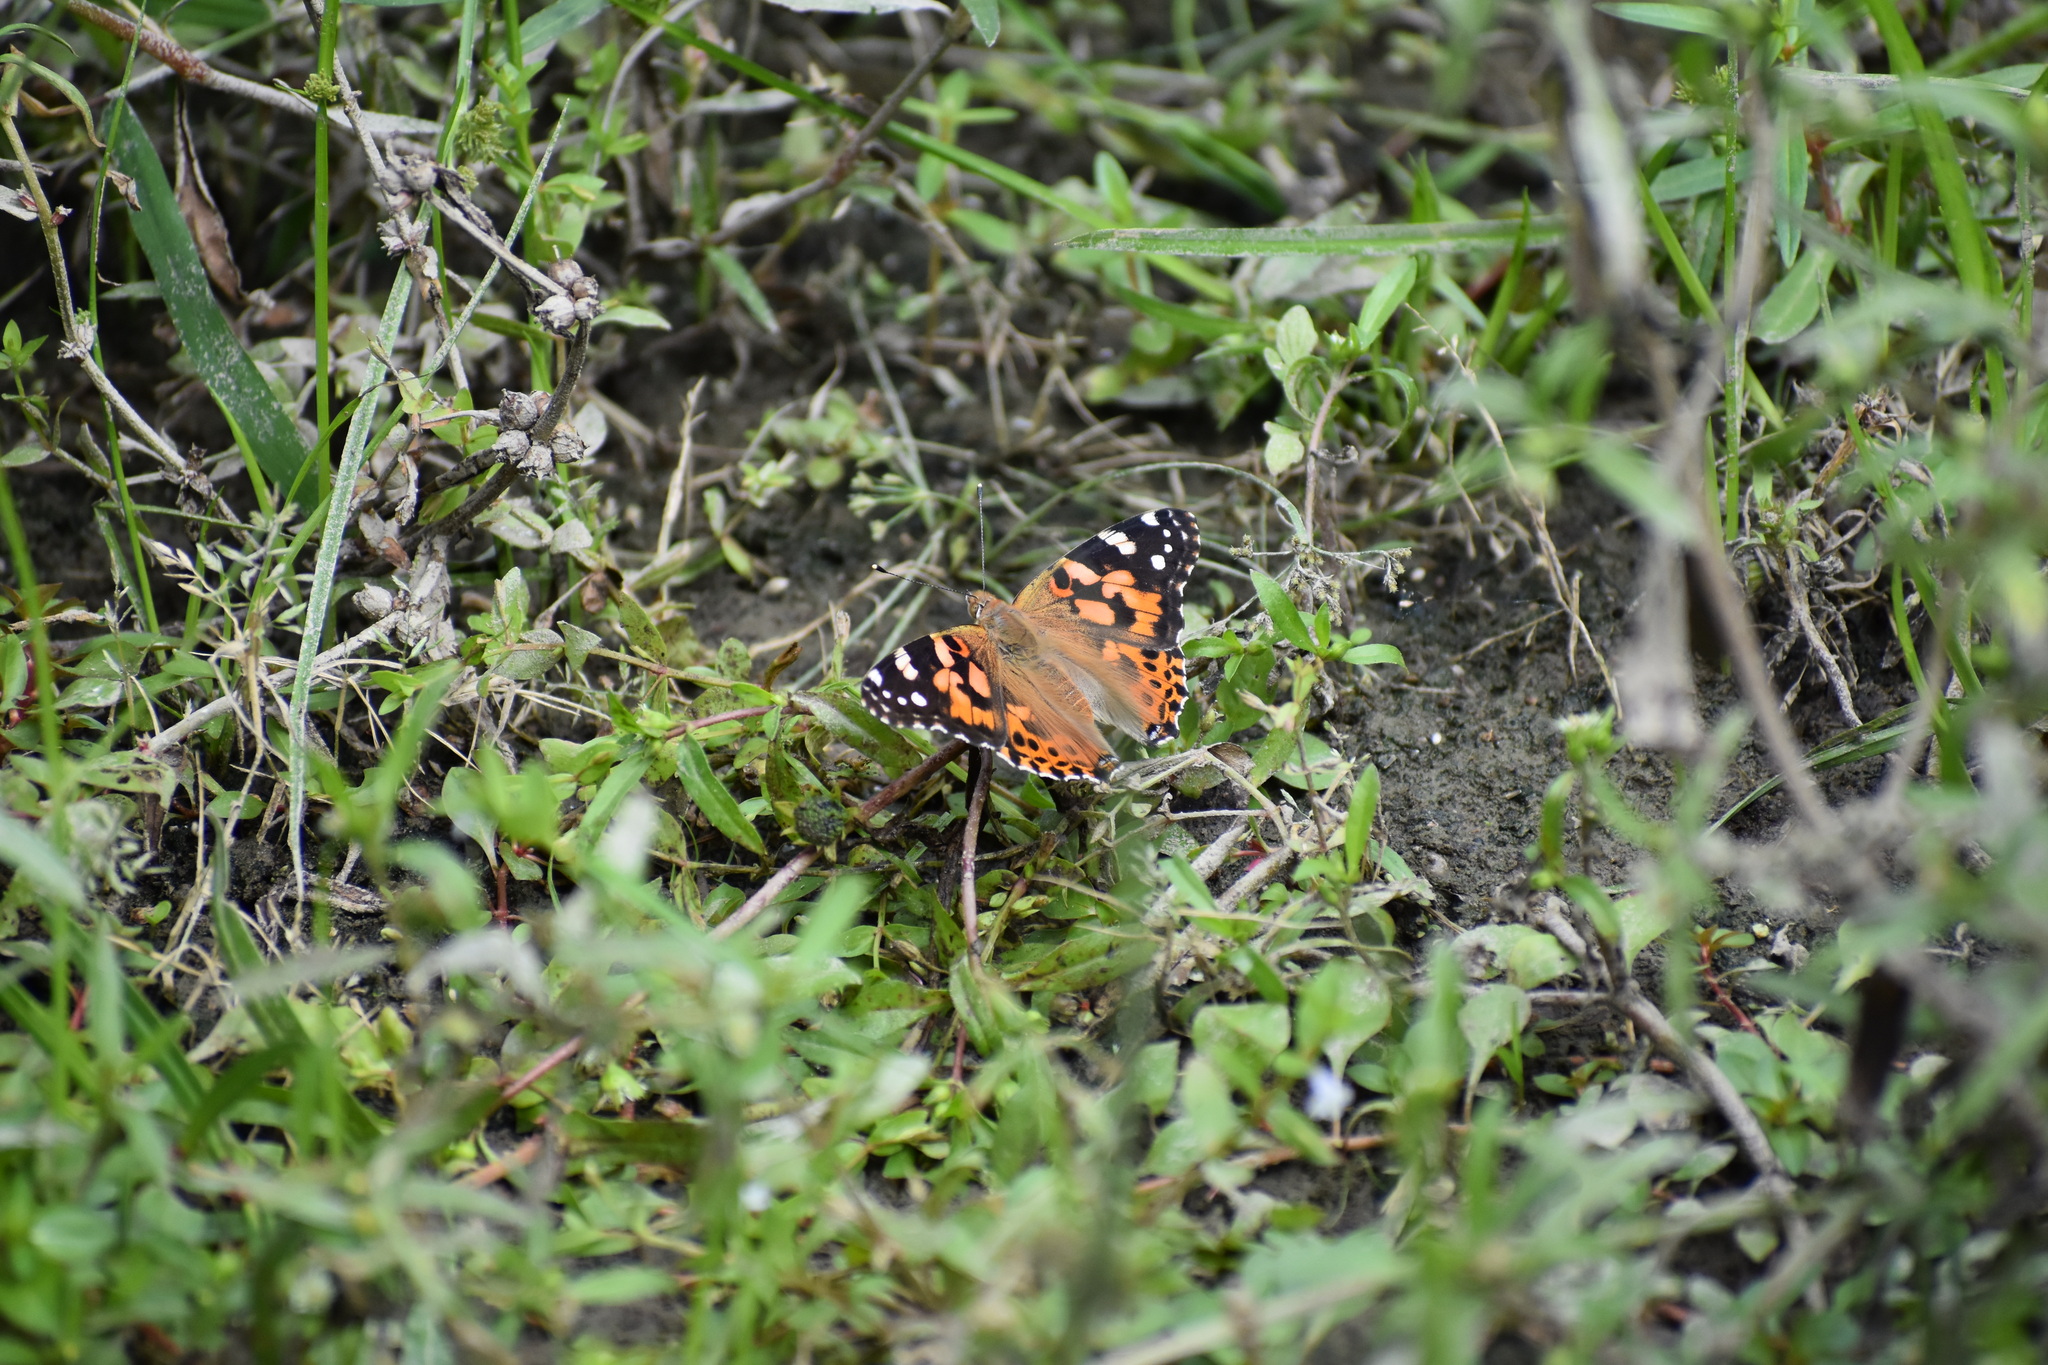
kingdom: Animalia
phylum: Arthropoda
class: Insecta
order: Lepidoptera
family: Nymphalidae
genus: Vanessa
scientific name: Vanessa cardui
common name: Painted lady
